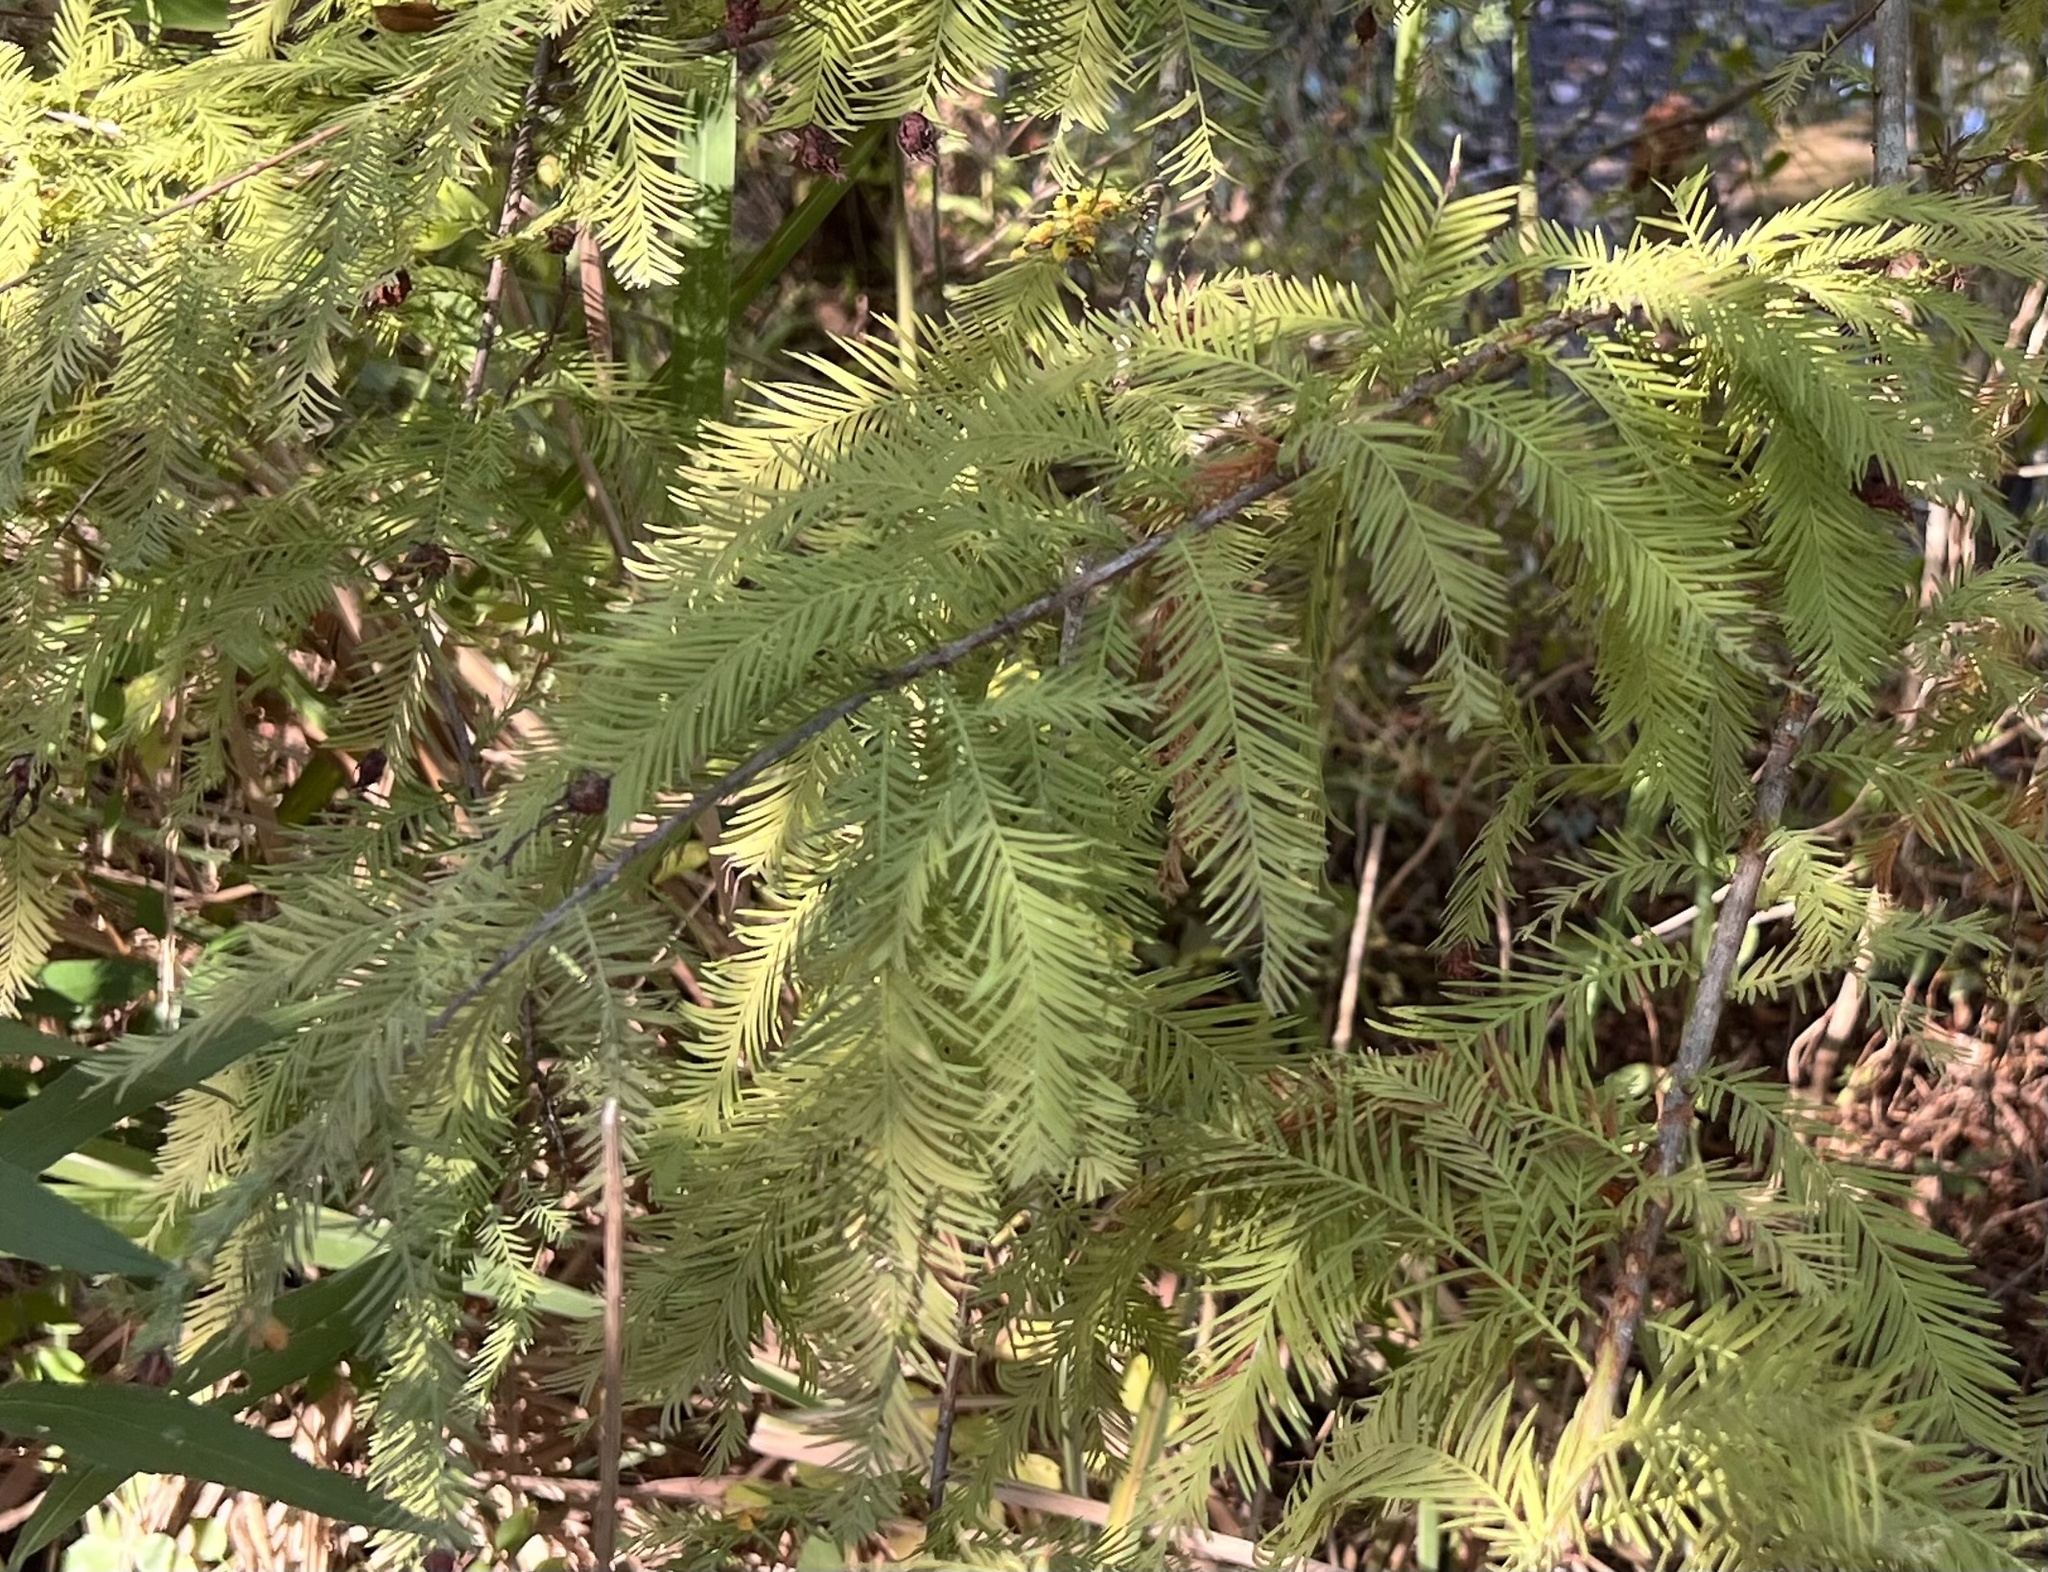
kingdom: Plantae
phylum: Tracheophyta
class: Pinopsida
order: Pinales
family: Cupressaceae
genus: Taxodium
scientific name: Taxodium distichum
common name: Bald cypress
